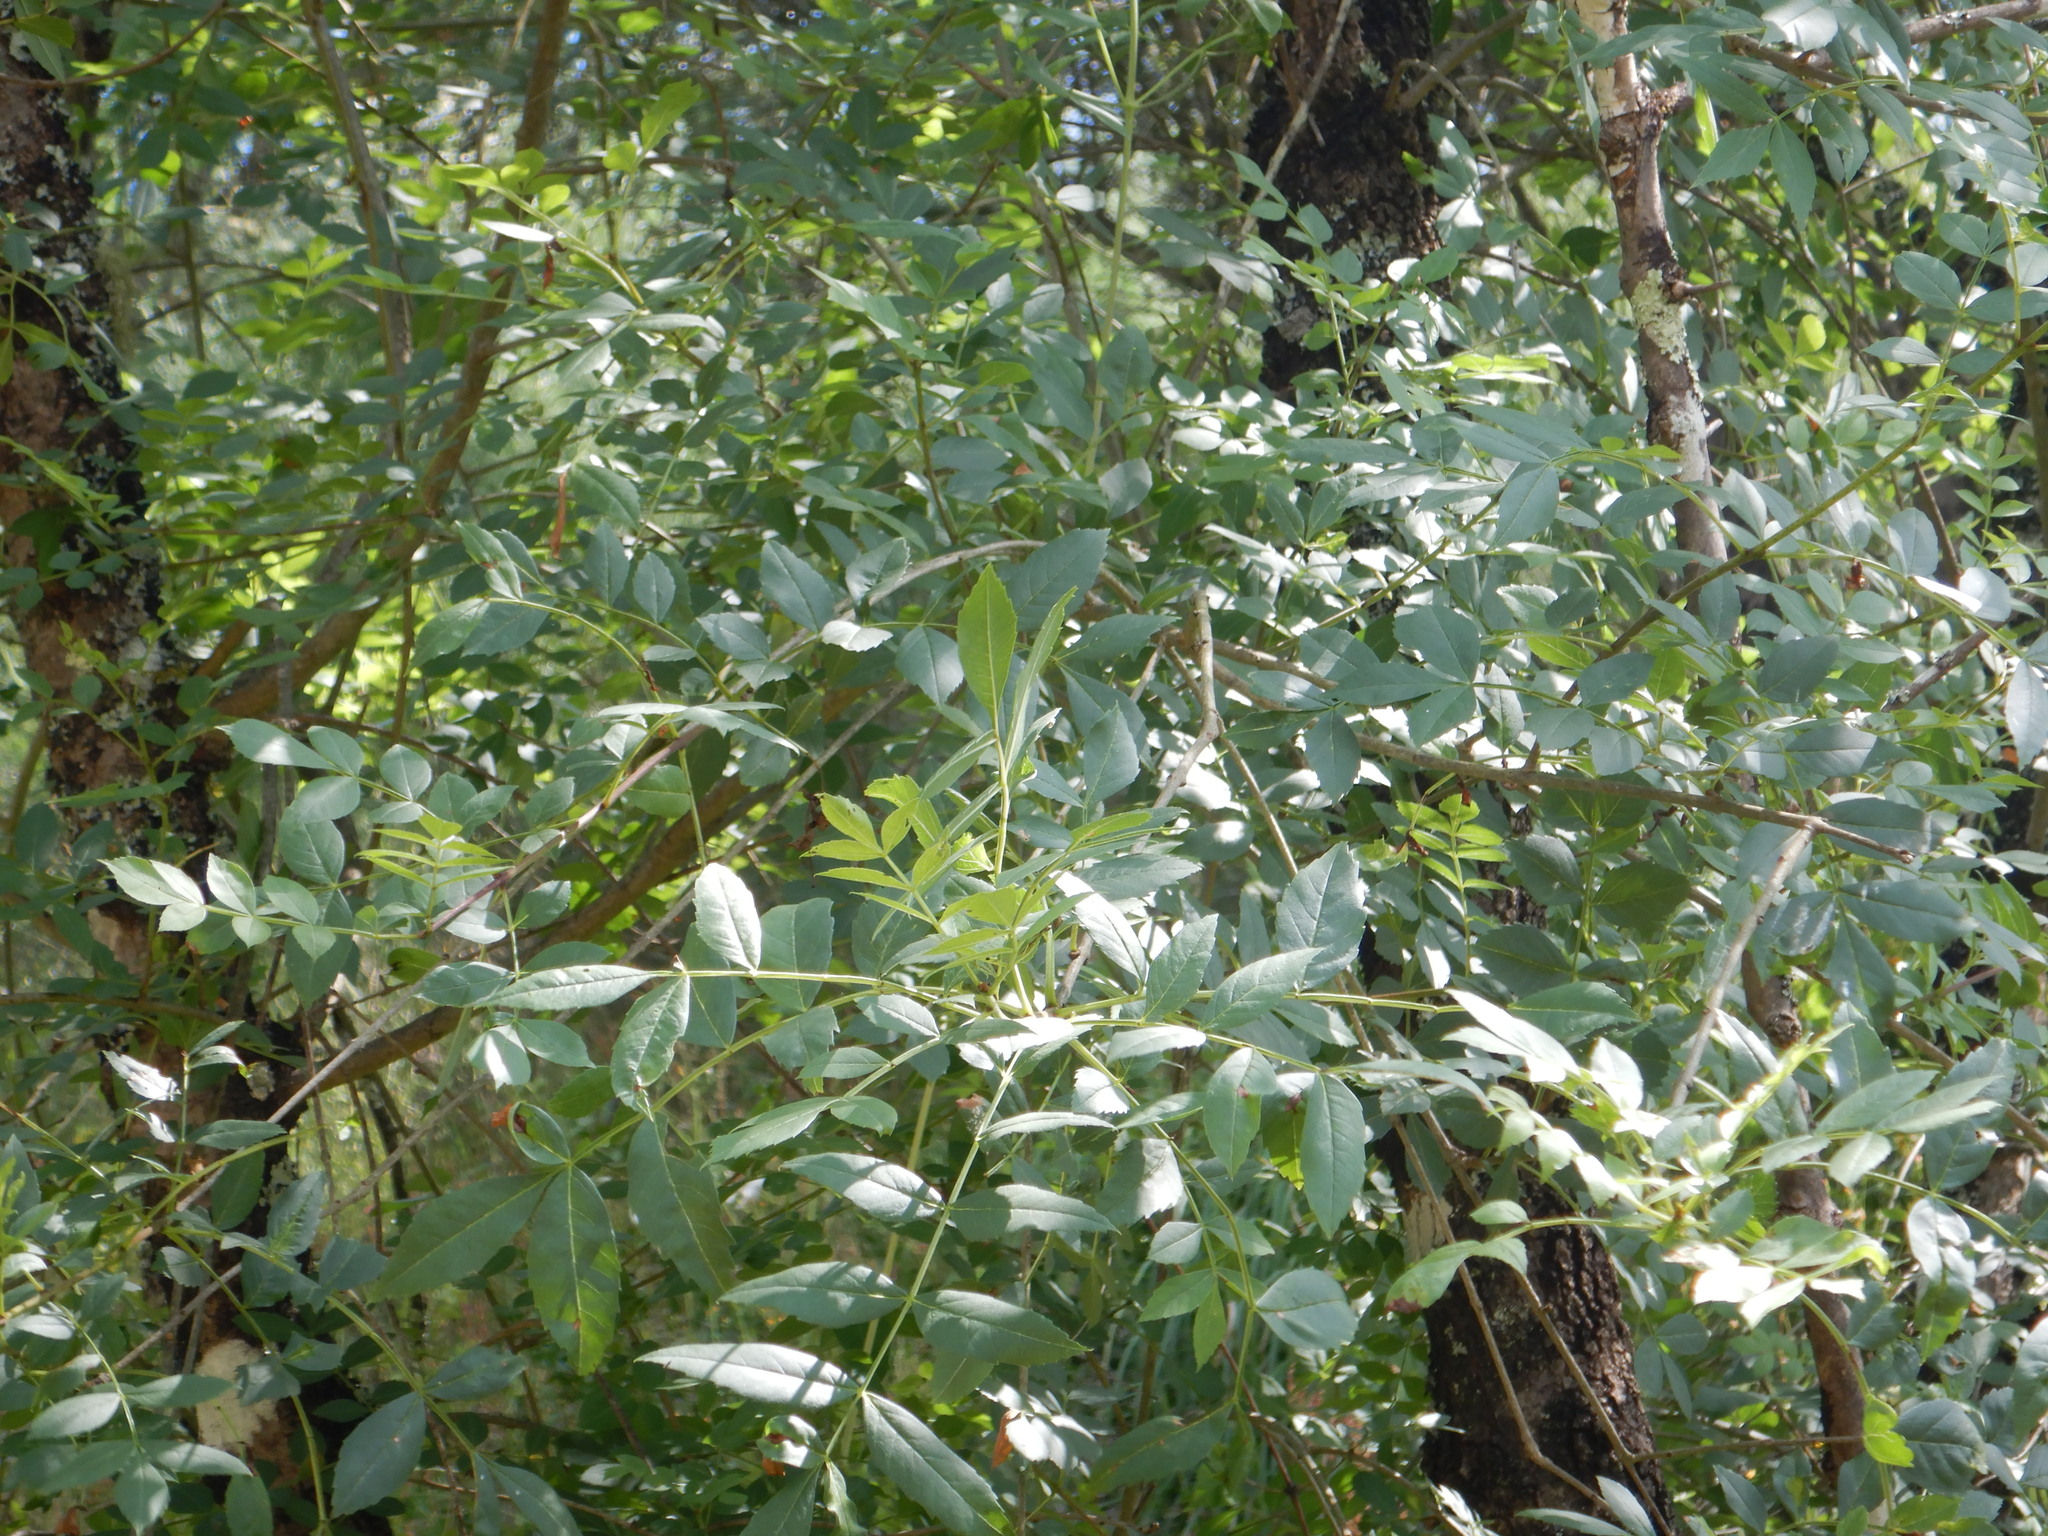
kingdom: Plantae
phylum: Tracheophyta
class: Magnoliopsida
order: Lamiales
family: Oleaceae
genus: Fraxinus
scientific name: Fraxinus angustifolia
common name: Narrow-leafed ash
